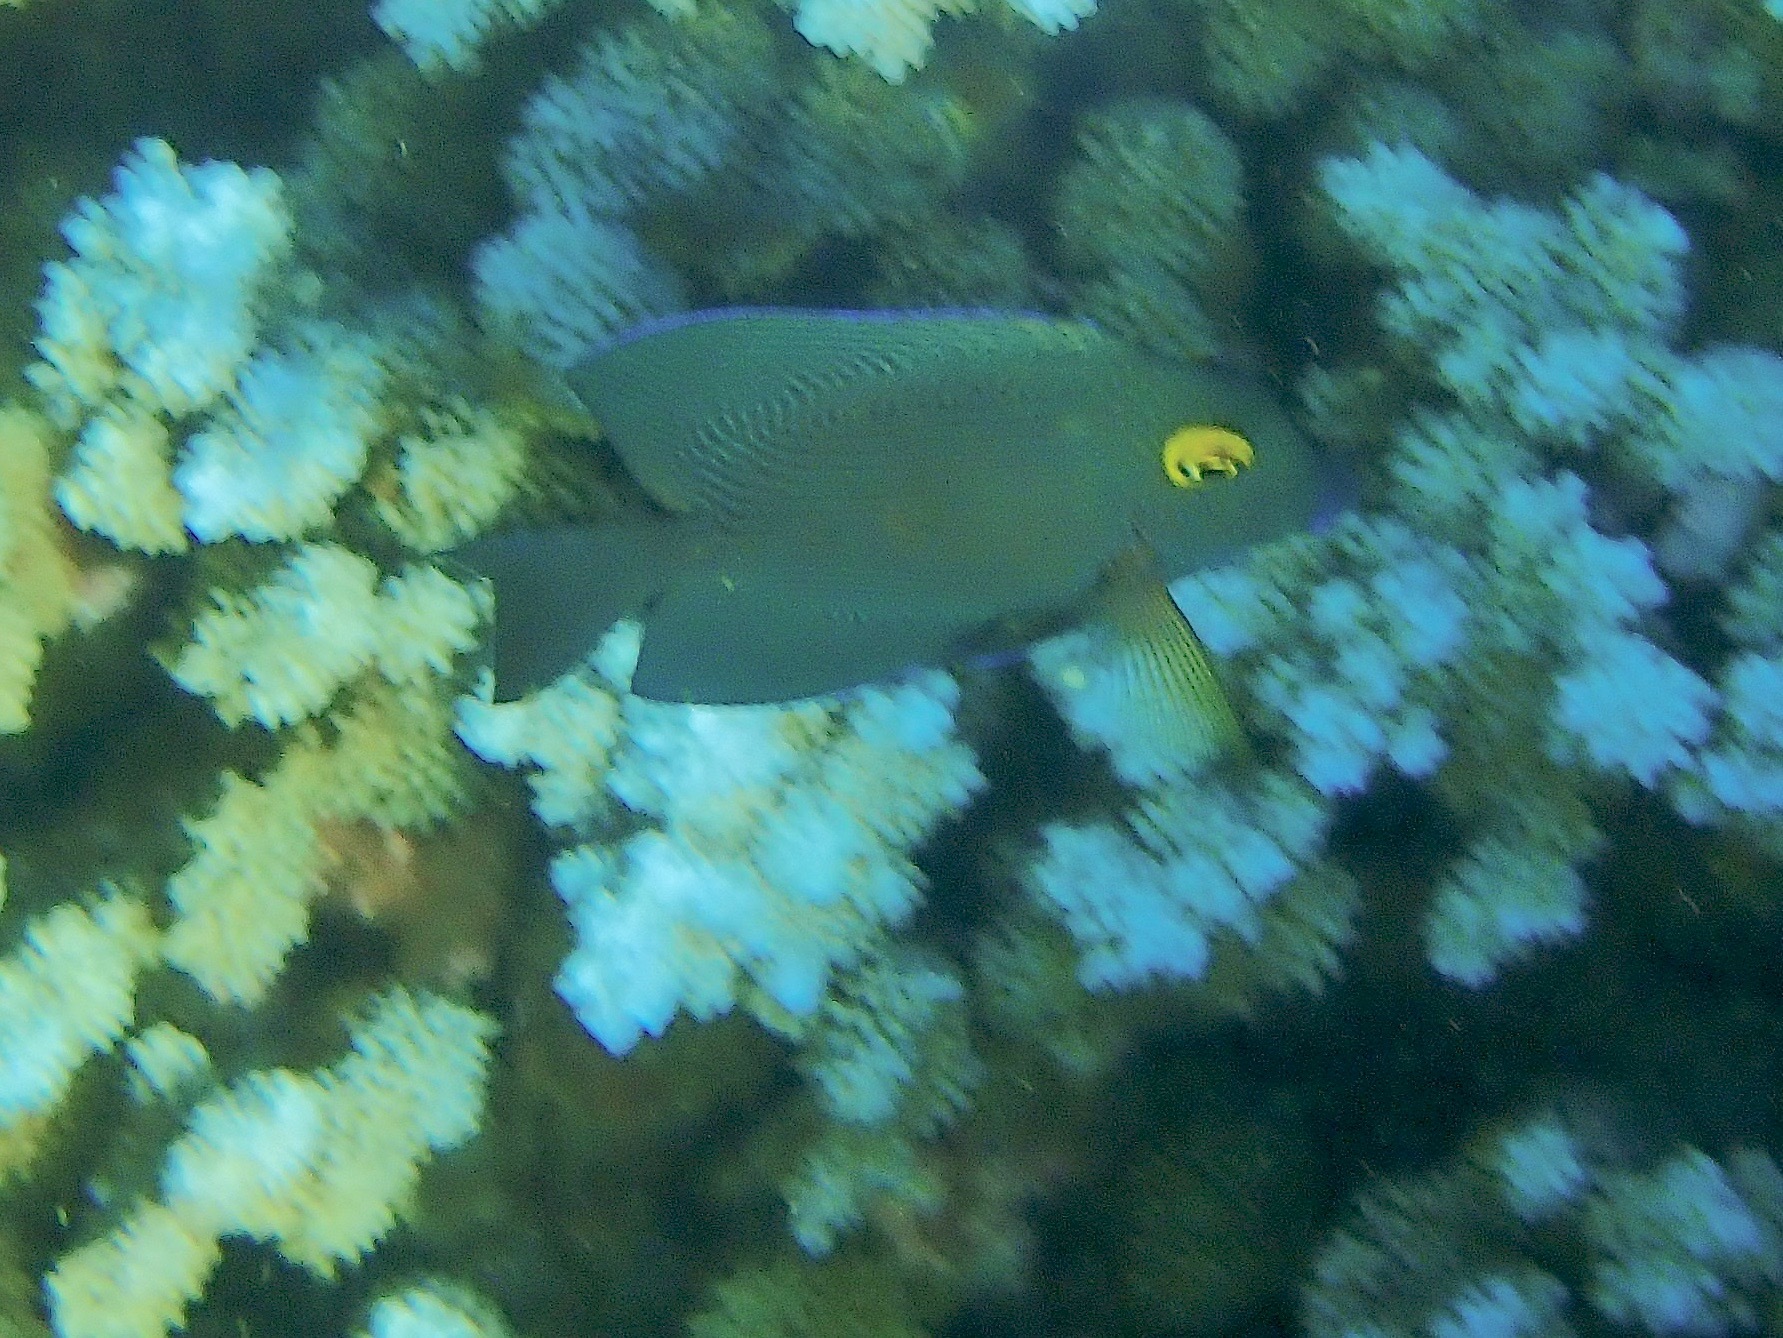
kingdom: Animalia
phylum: Chordata
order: Perciformes
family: Acanthuridae
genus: Ctenochaetus
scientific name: Ctenochaetus strigosus
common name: Bristletoothed surgeonfish
